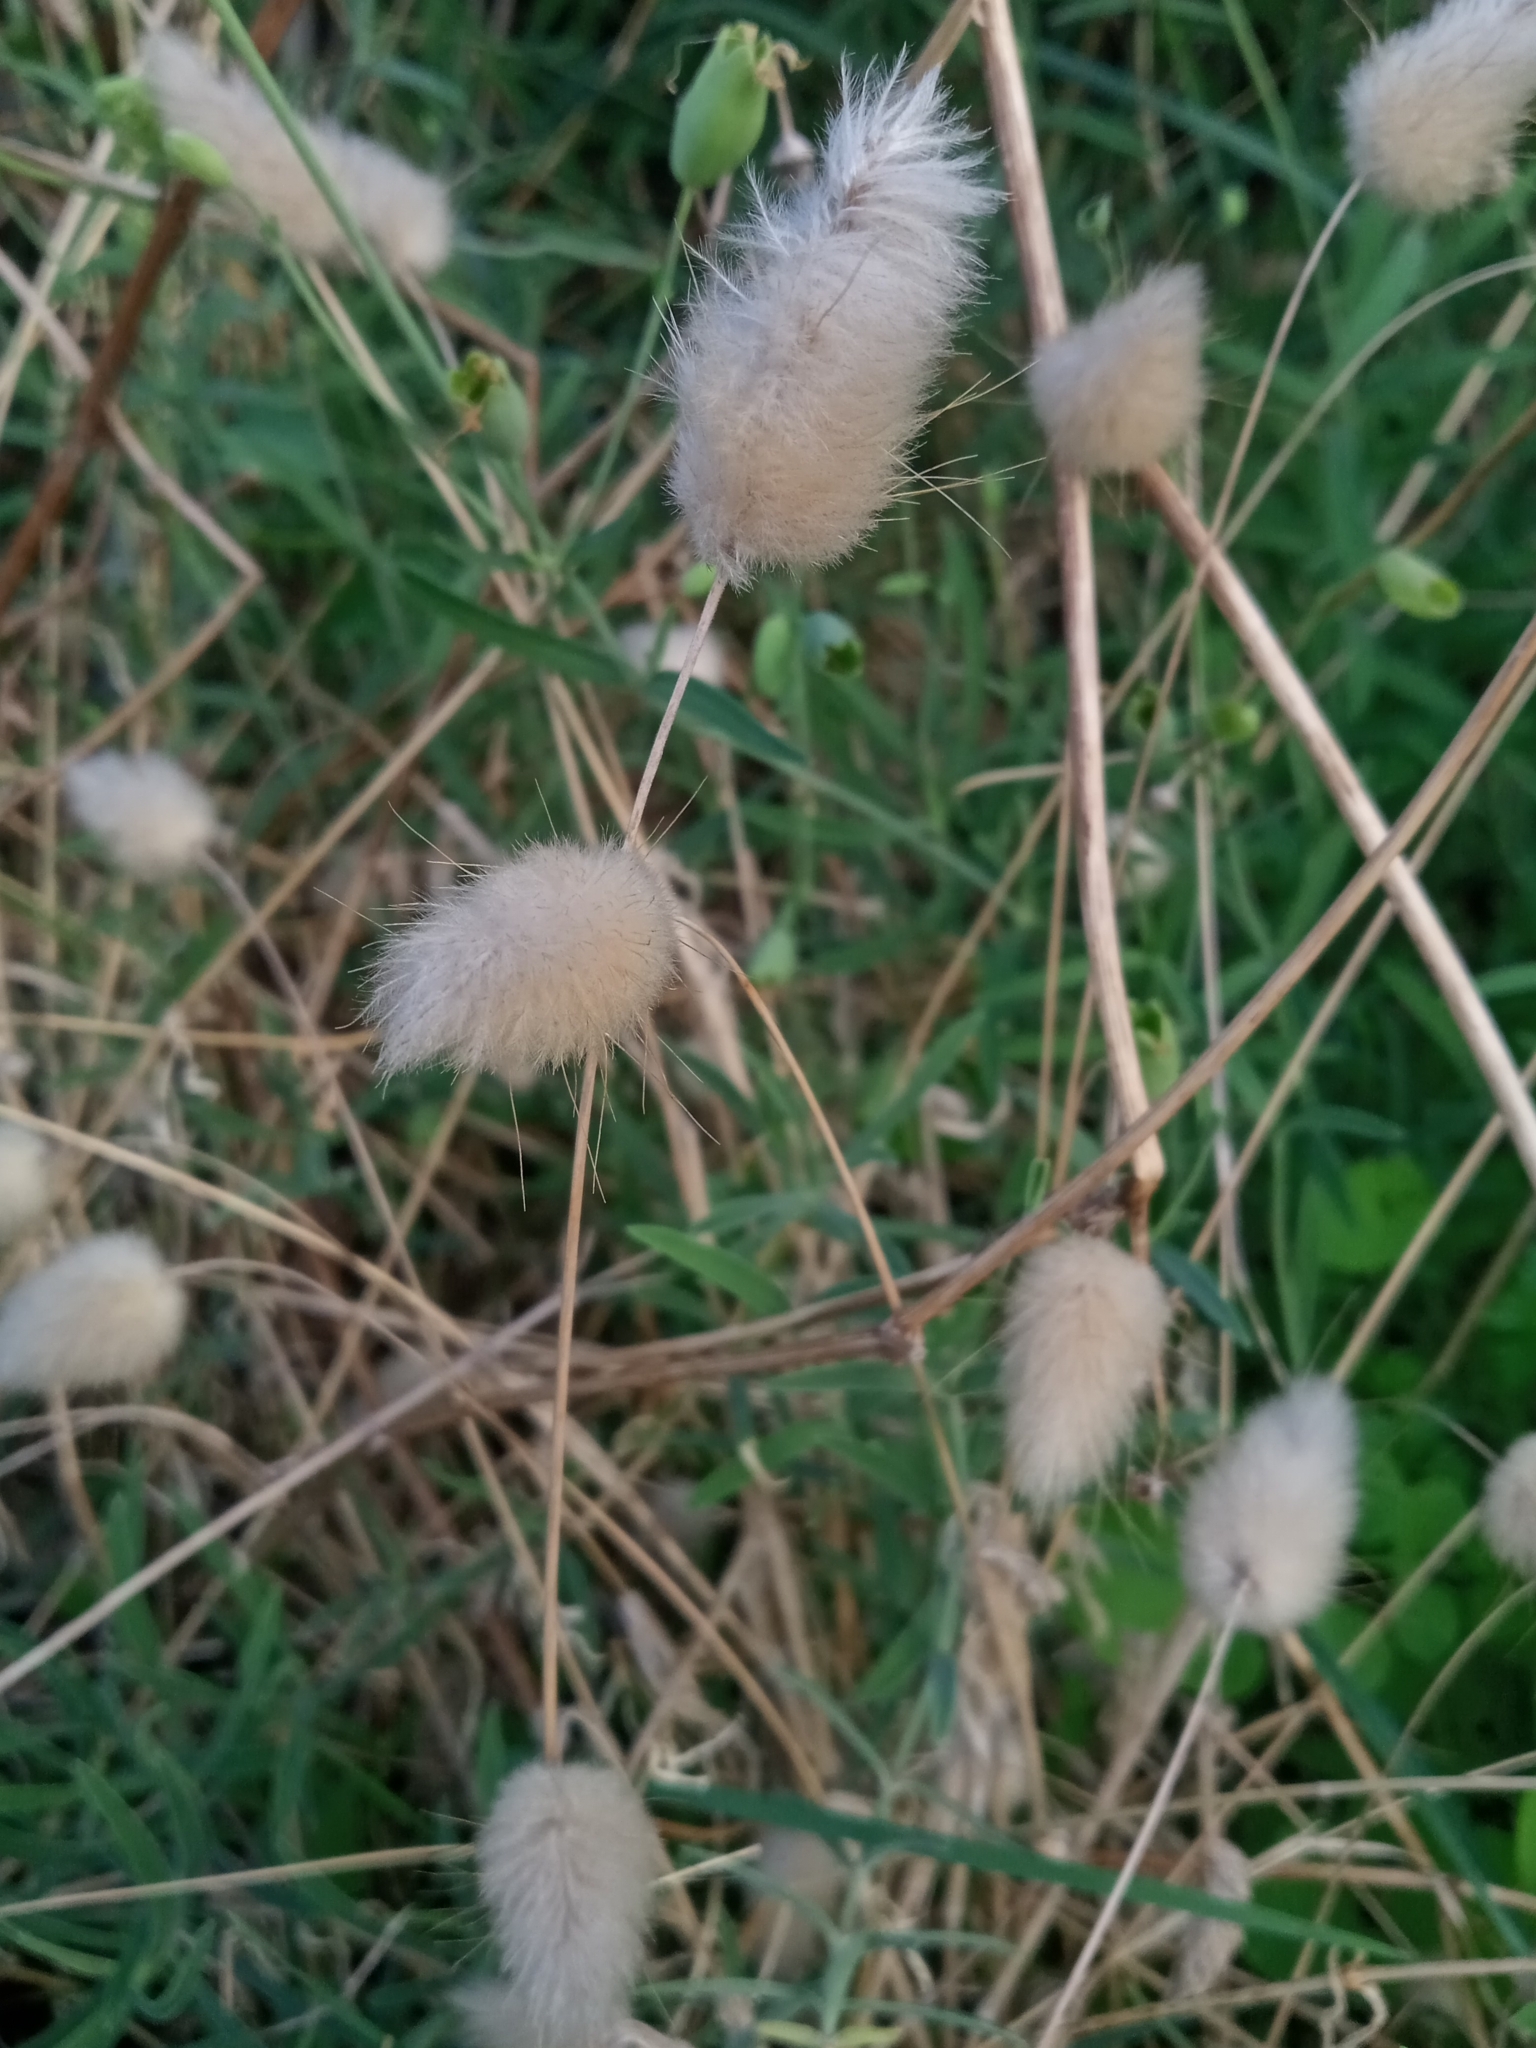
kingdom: Plantae
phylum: Tracheophyta
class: Liliopsida
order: Poales
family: Poaceae
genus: Lagurus
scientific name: Lagurus ovatus
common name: Hare's-tail
